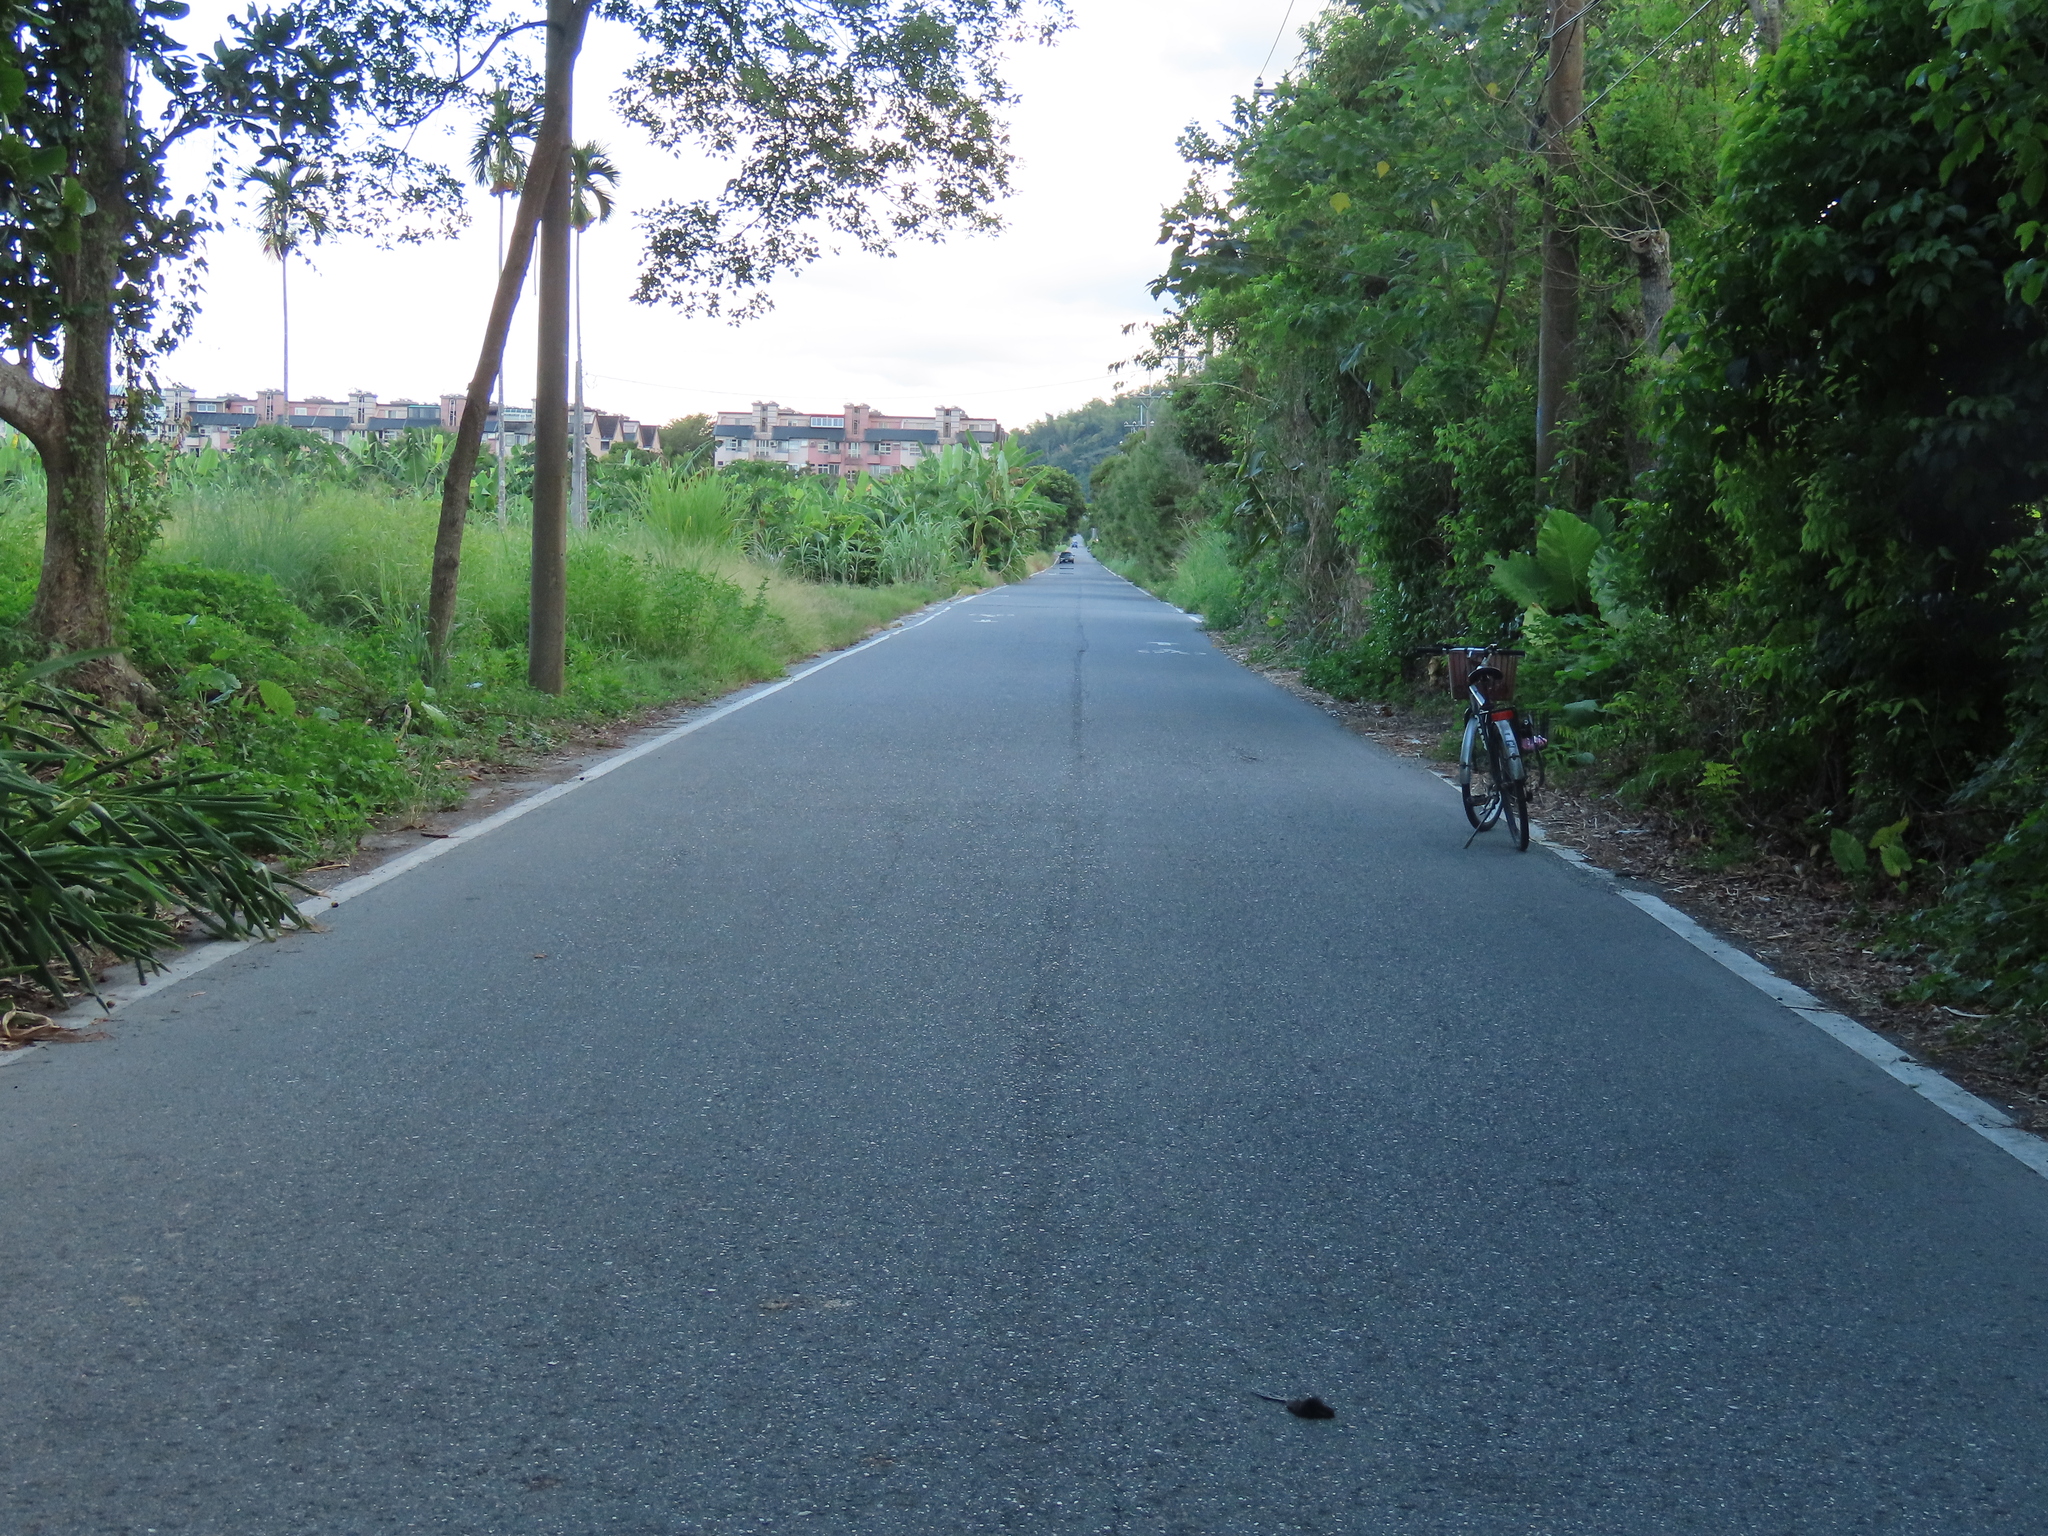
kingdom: Animalia
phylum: Chordata
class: Aves
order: Gruiformes
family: Rallidae
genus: Amaurornis
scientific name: Amaurornis phoenicurus
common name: White-breasted waterhen
